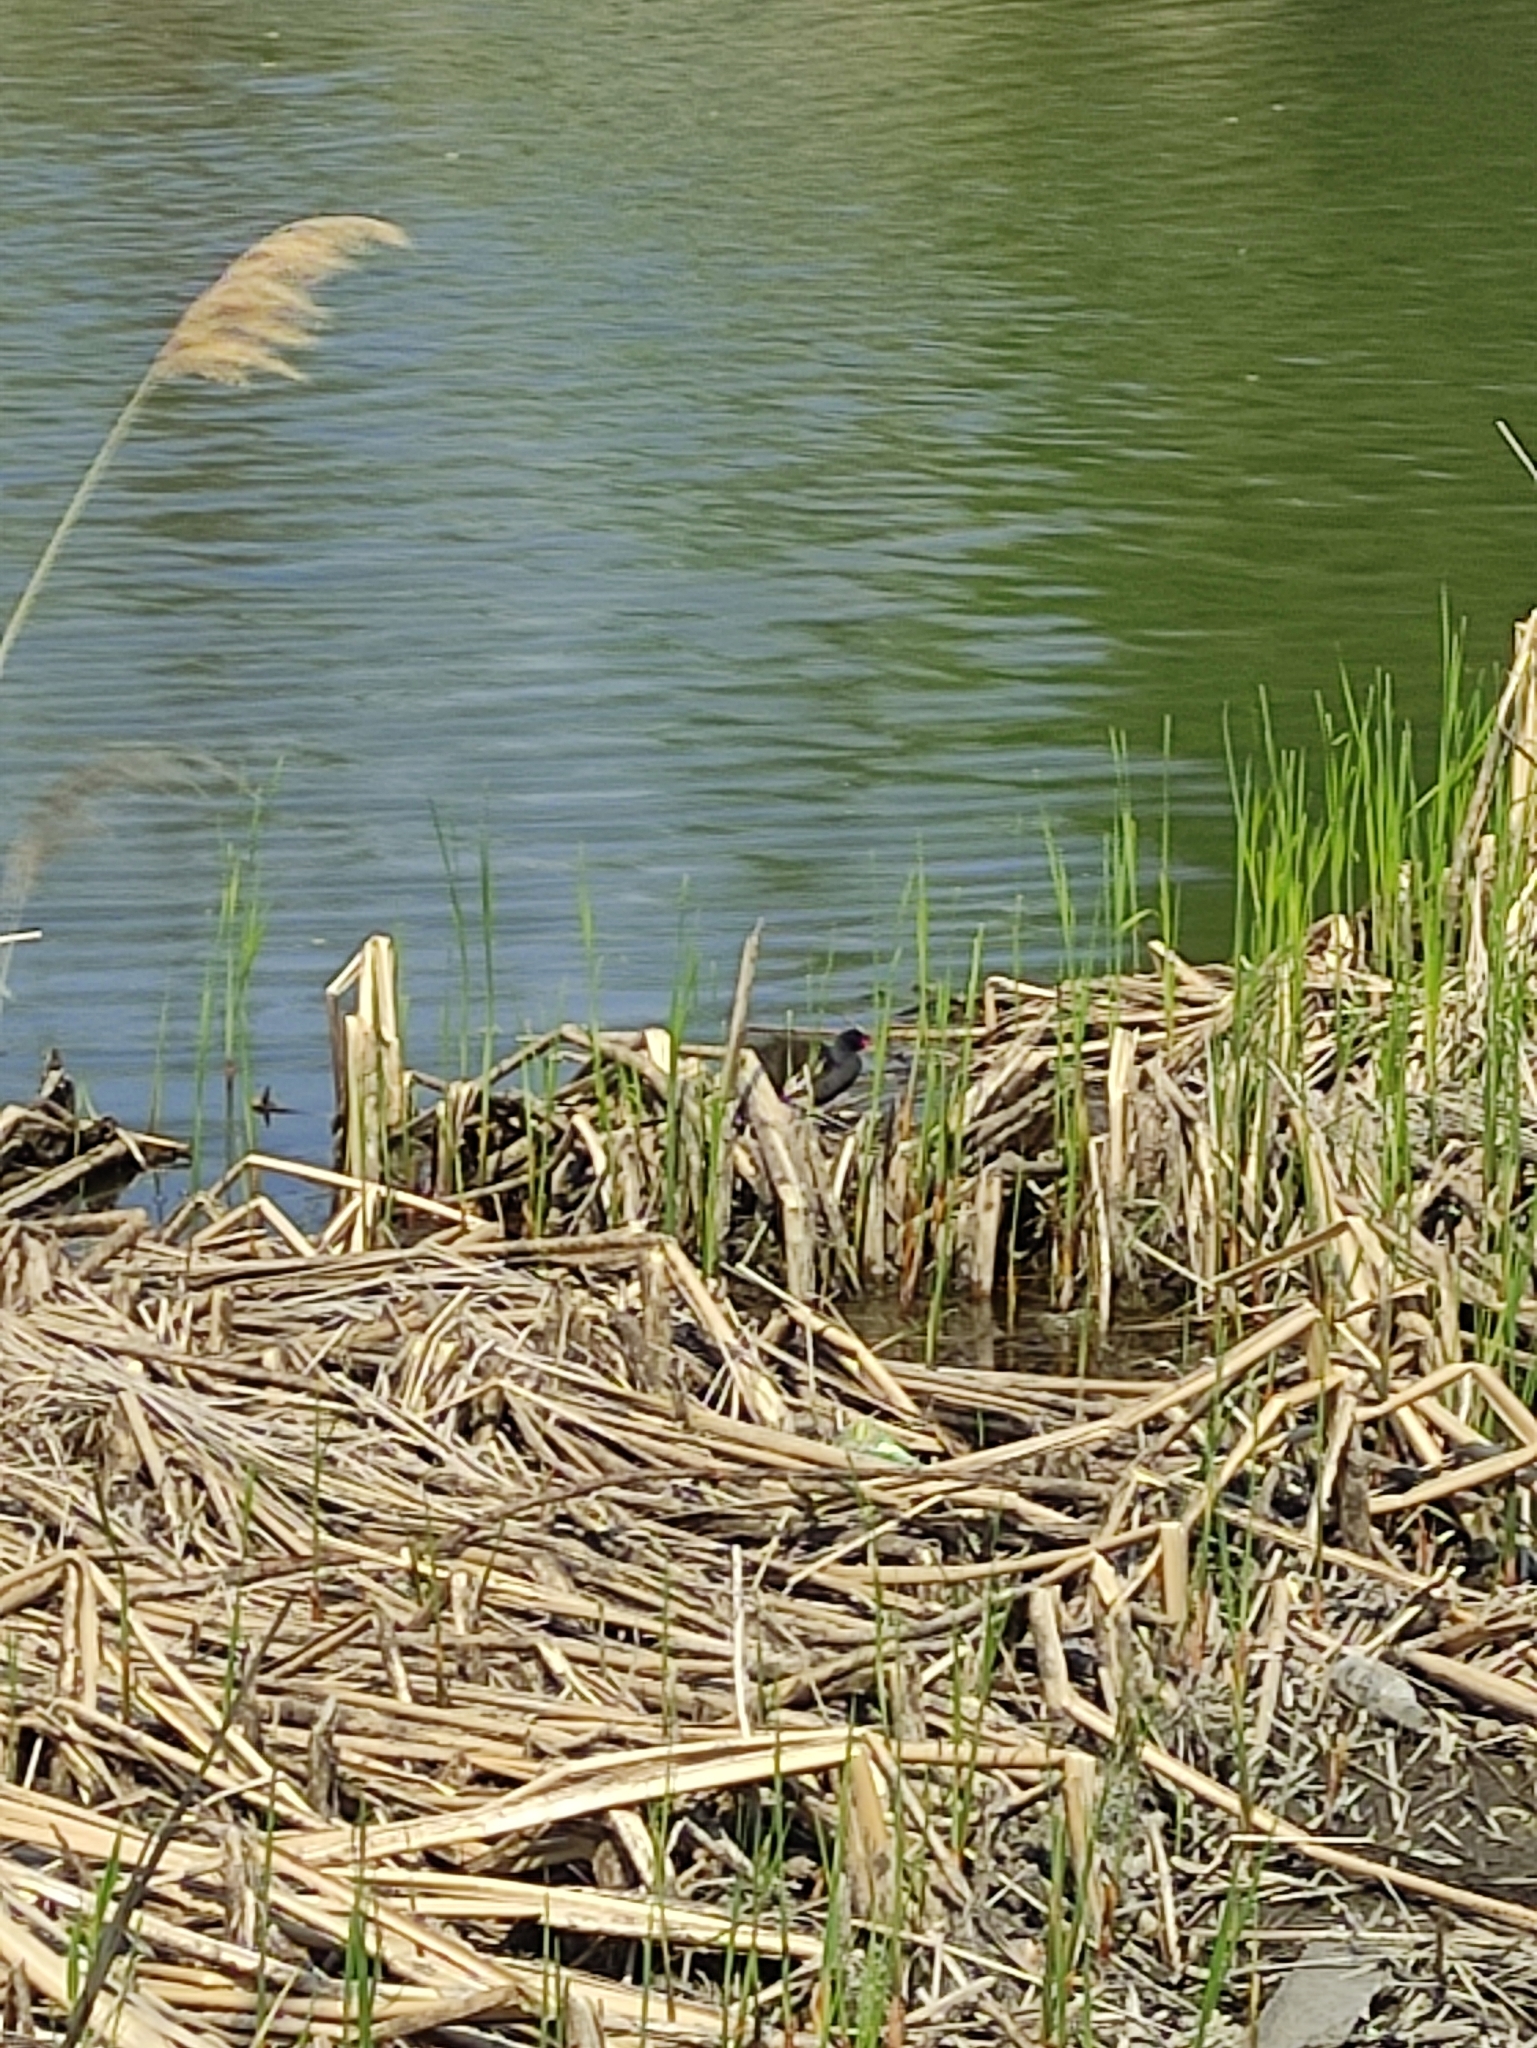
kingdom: Animalia
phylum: Chordata
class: Aves
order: Gruiformes
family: Rallidae
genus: Gallinula
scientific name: Gallinula chloropus
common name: Common moorhen
